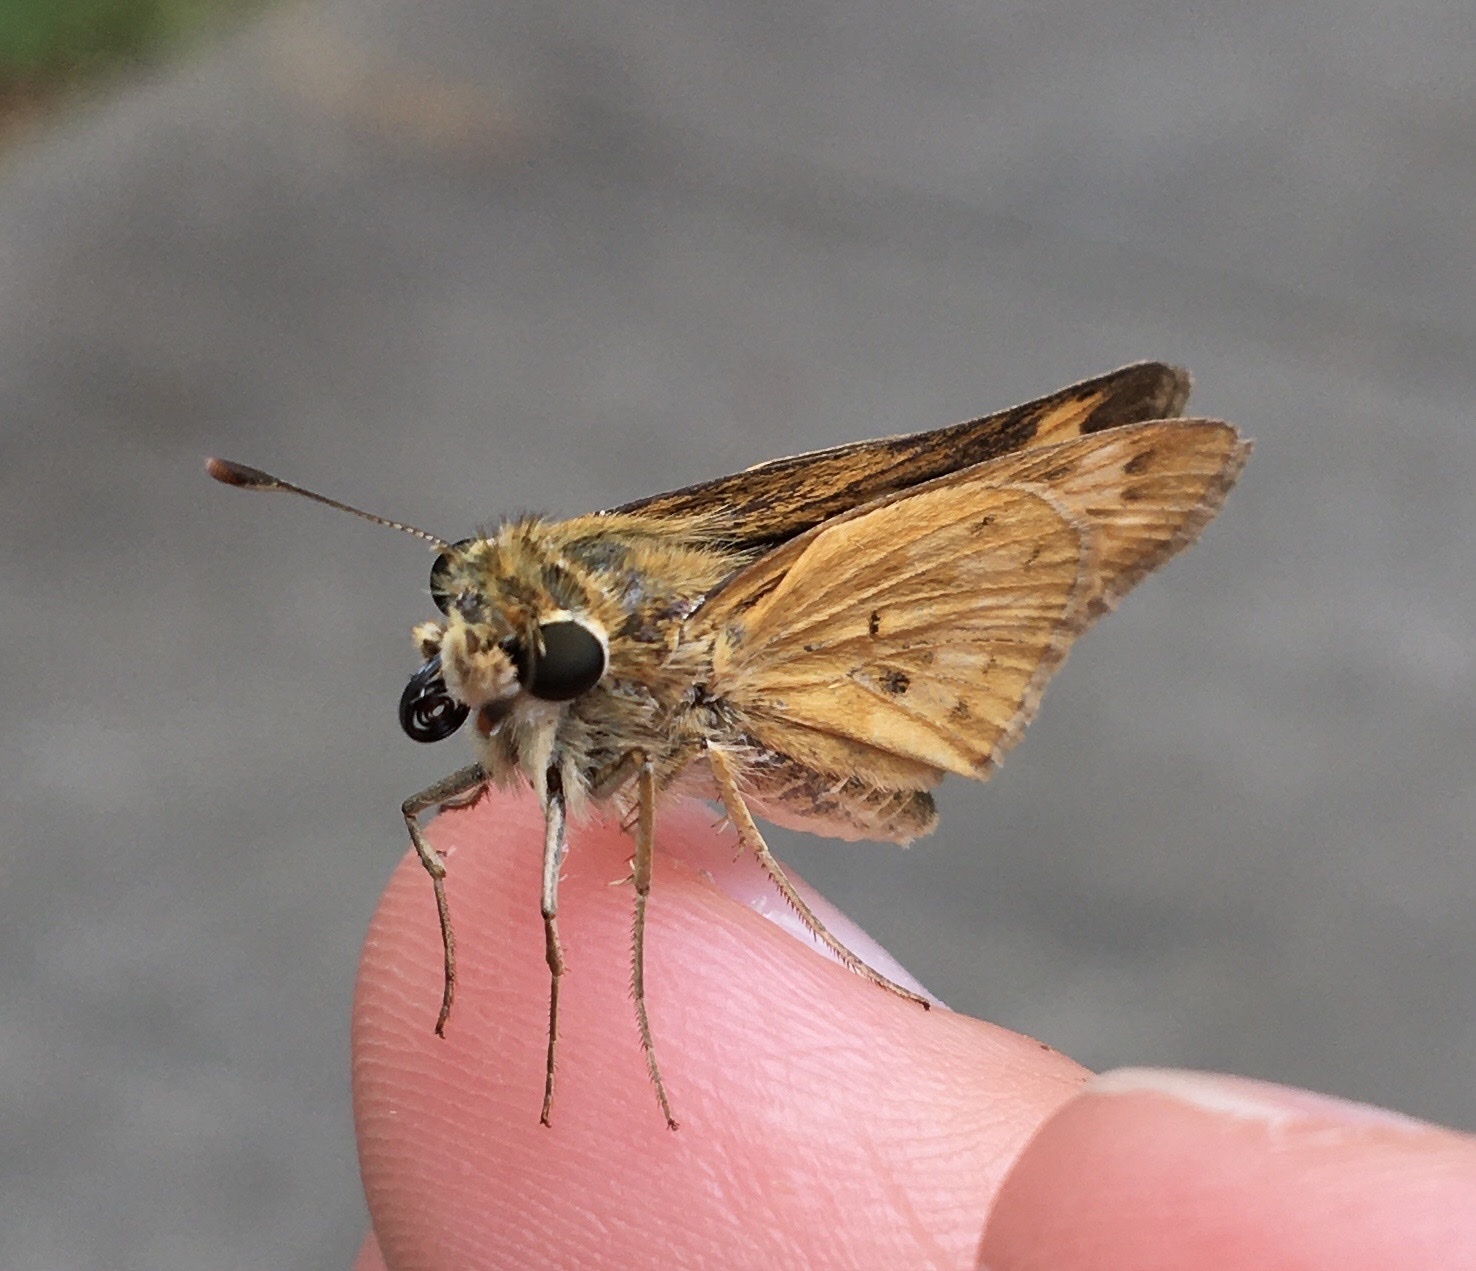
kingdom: Animalia
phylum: Arthropoda
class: Insecta
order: Lepidoptera
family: Hesperiidae
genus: Hylephila
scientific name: Hylephila phyleus
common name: Fiery skipper
